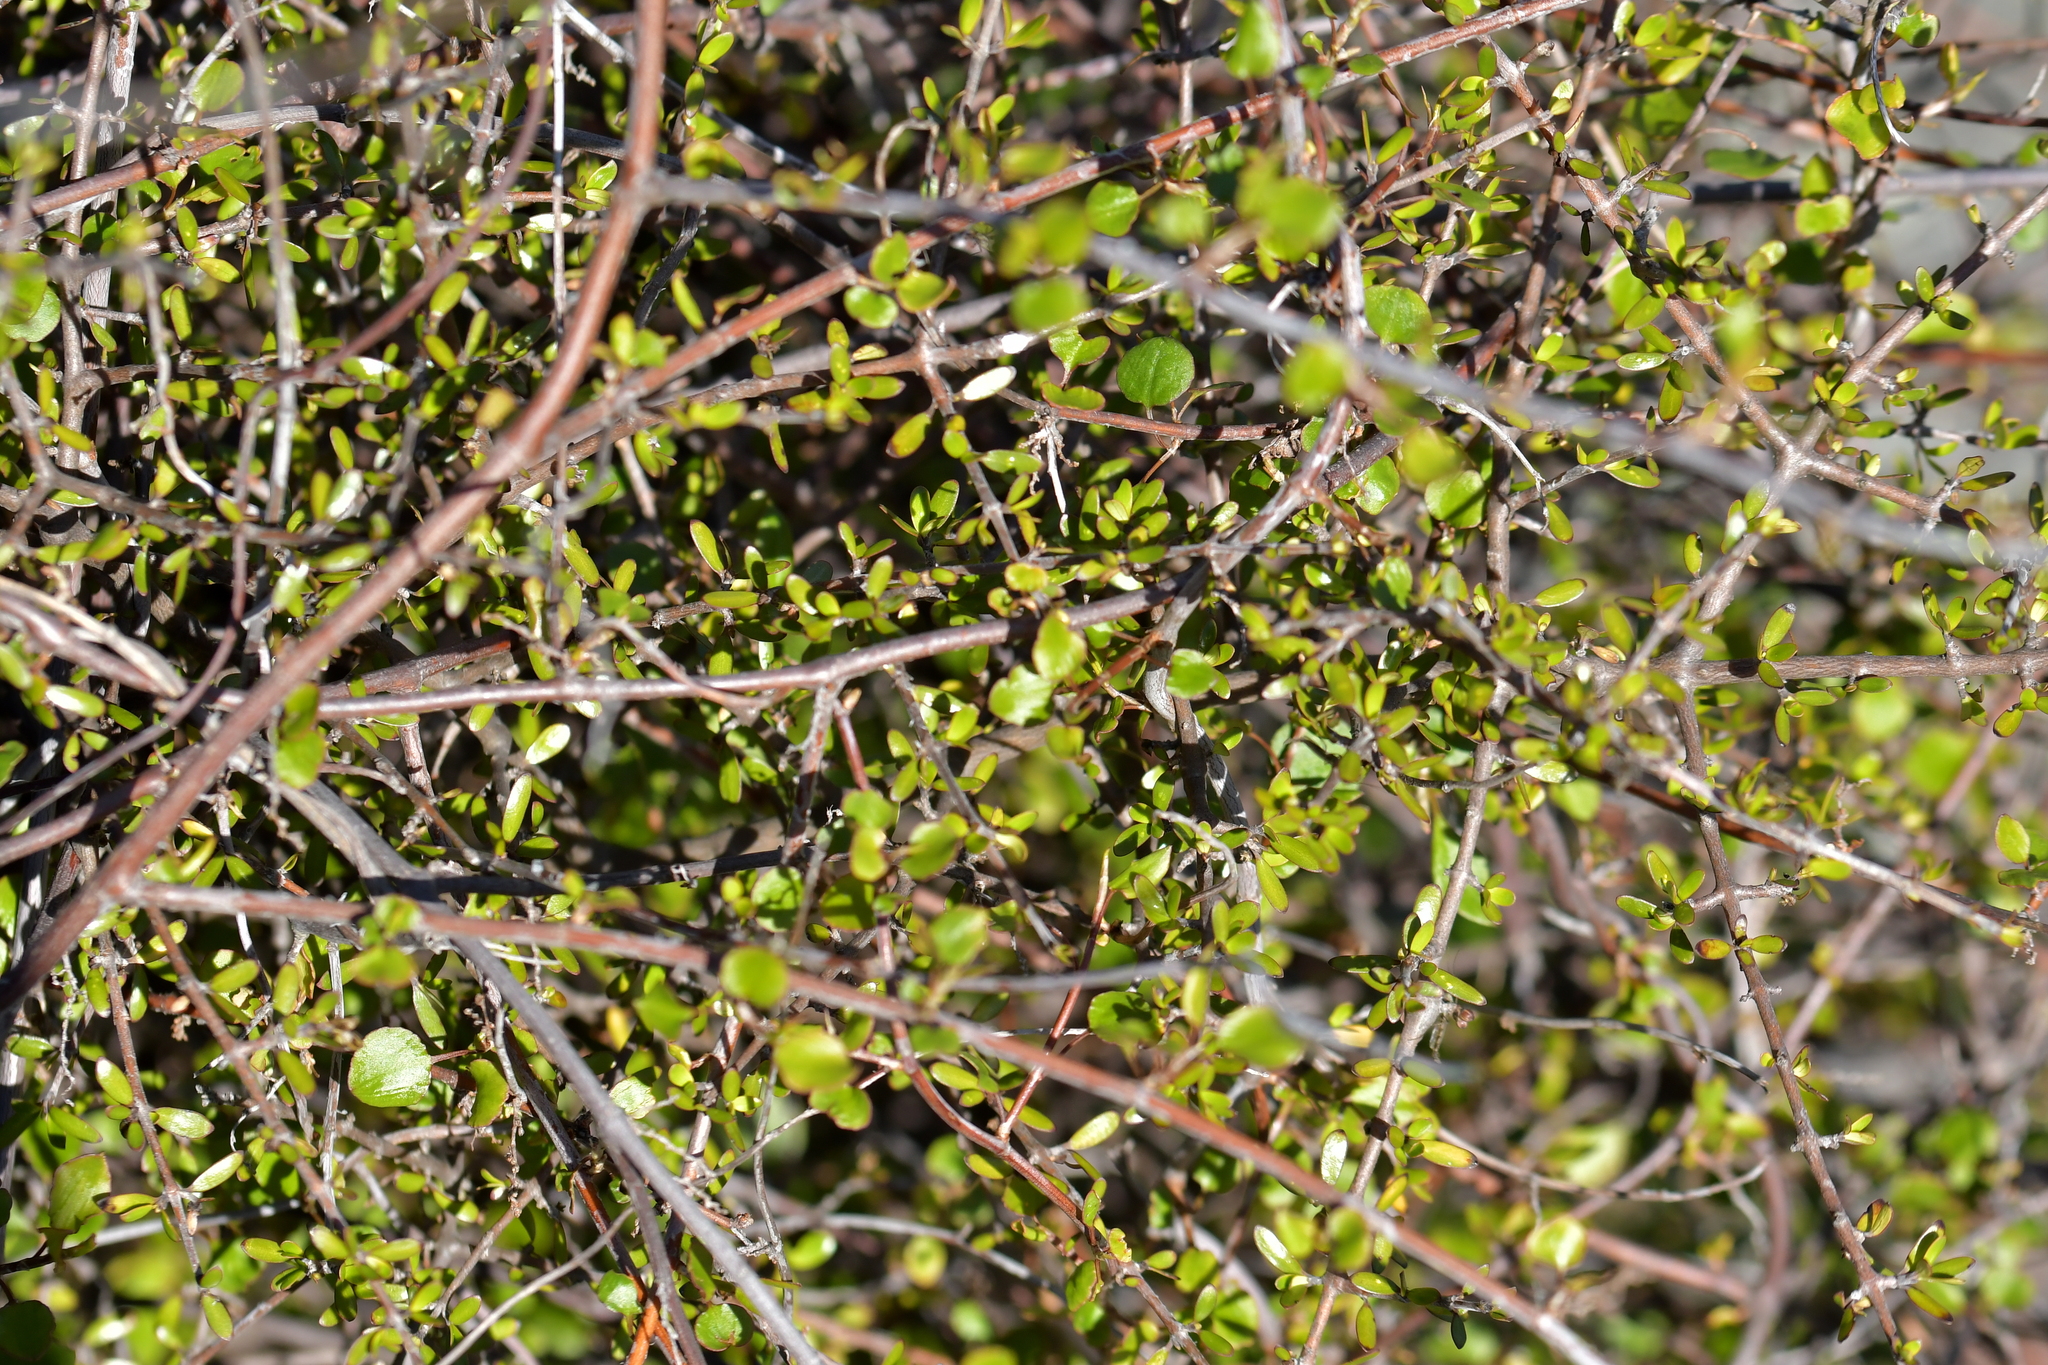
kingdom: Plantae
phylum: Tracheophyta
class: Magnoliopsida
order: Gentianales
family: Rubiaceae
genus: Coprosma
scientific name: Coprosma propinqua
